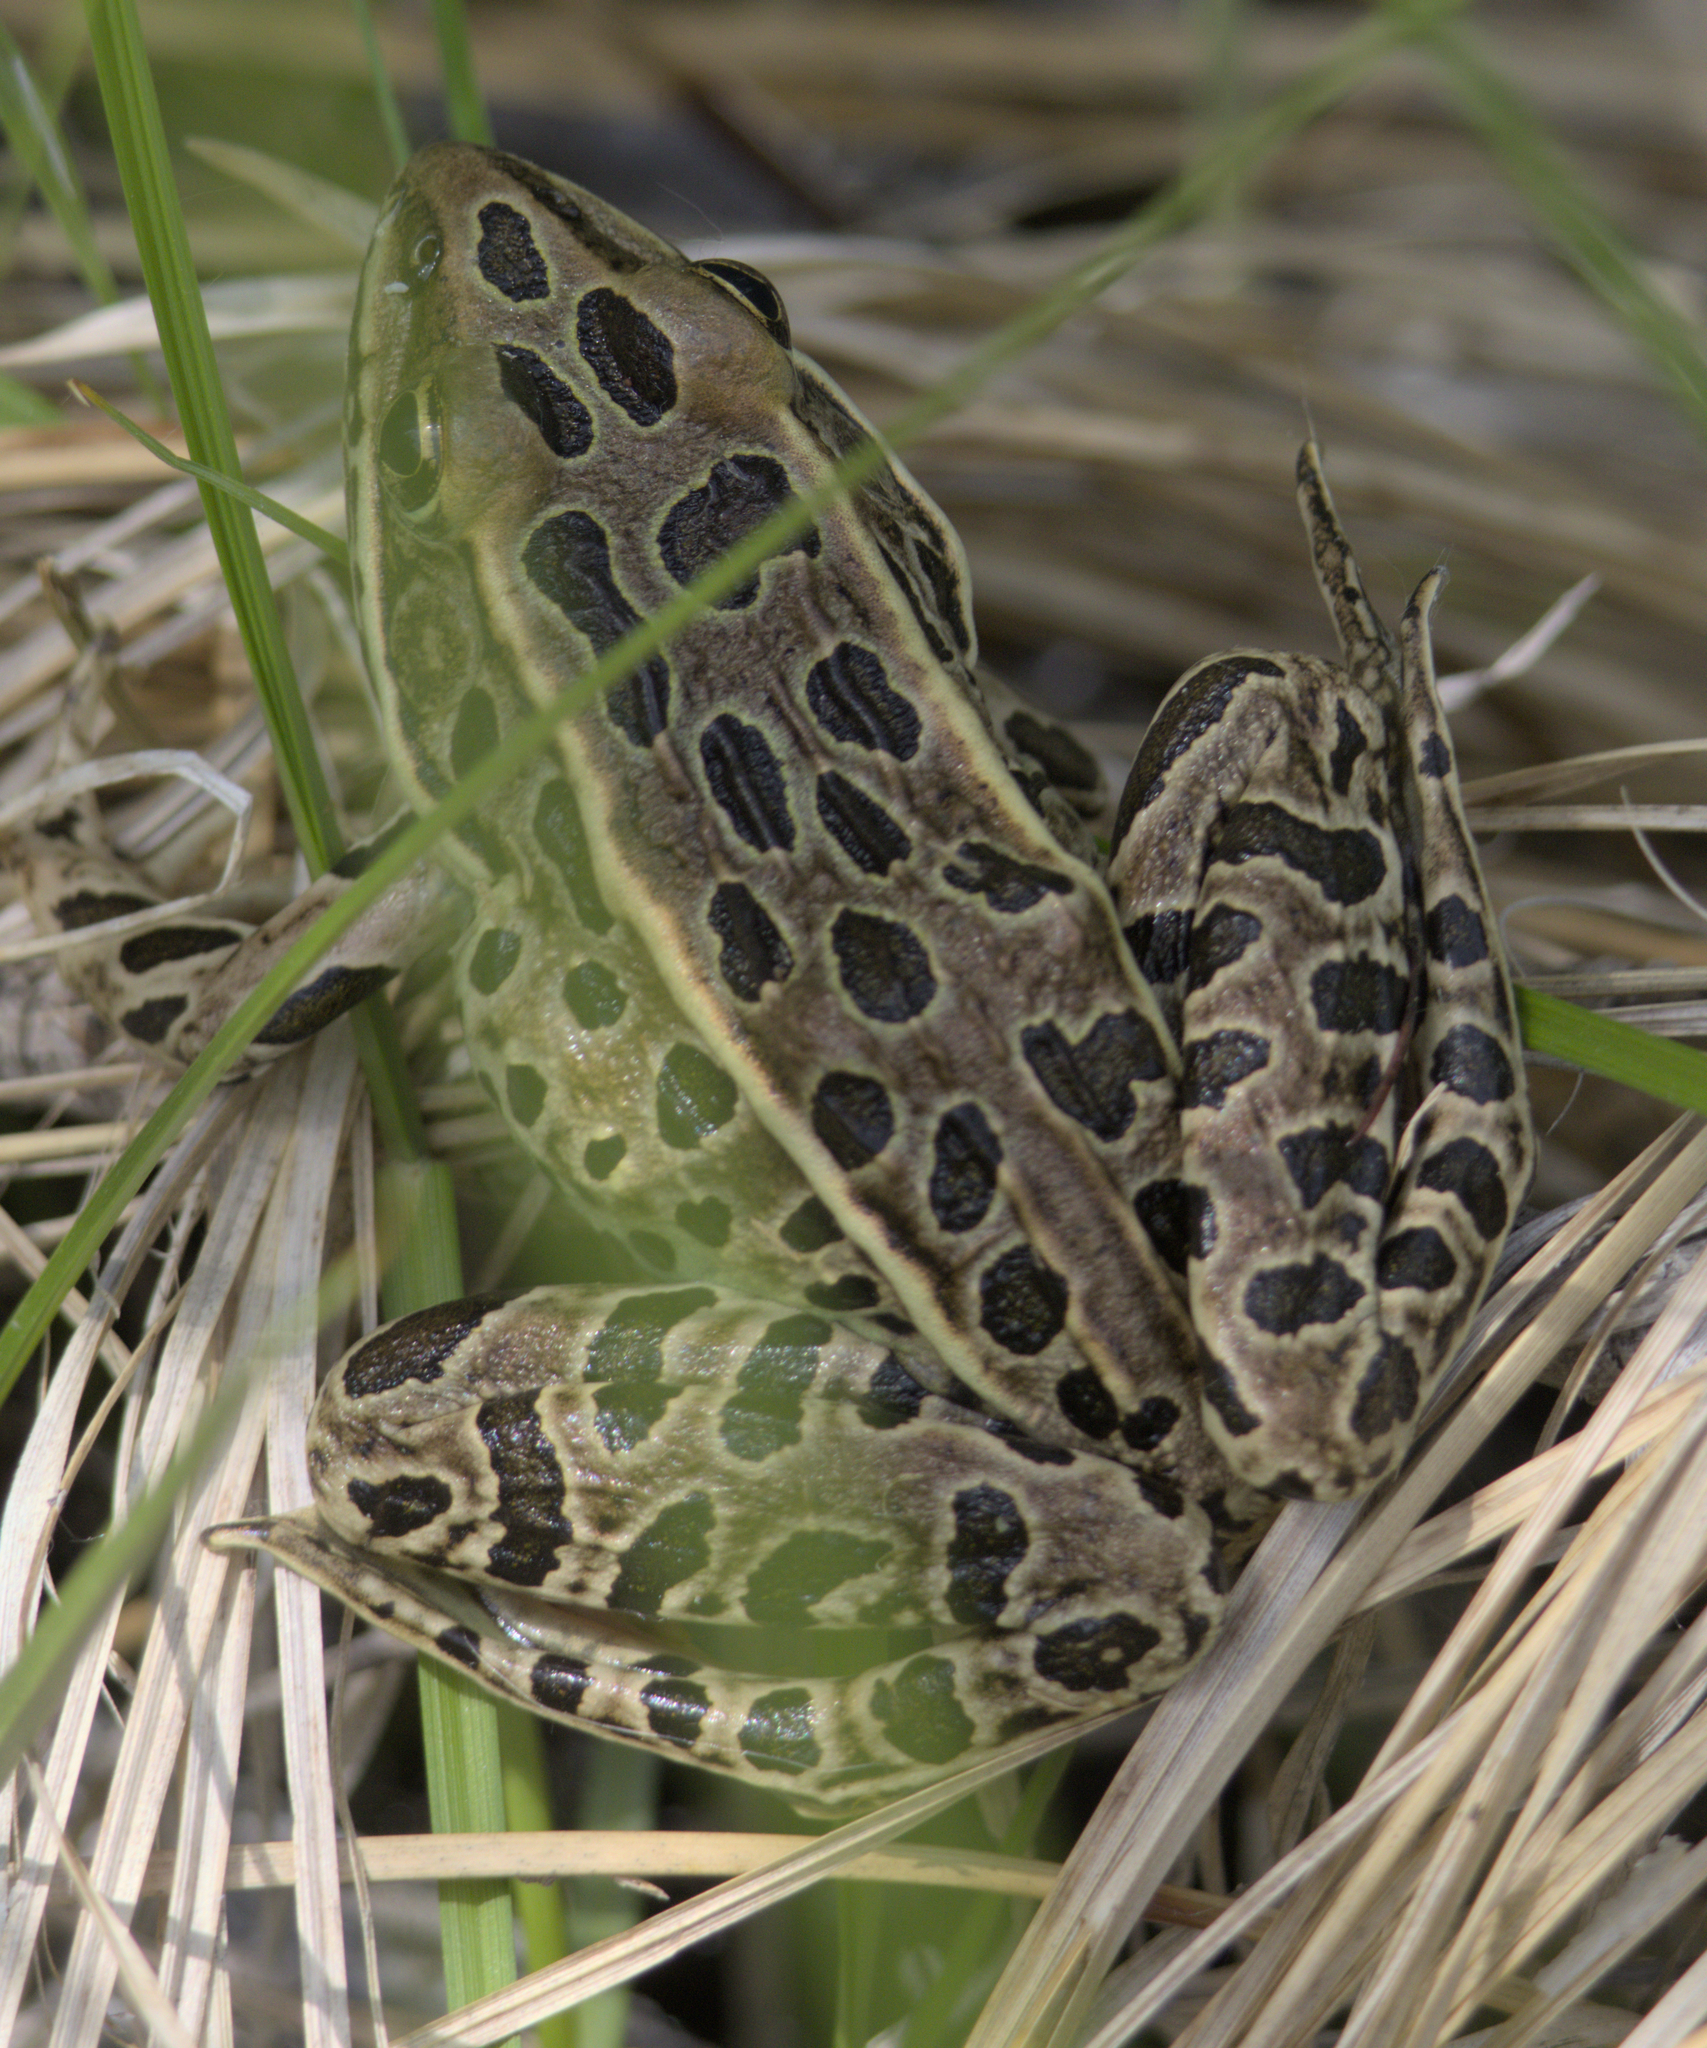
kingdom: Animalia
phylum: Chordata
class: Amphibia
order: Anura
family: Ranidae
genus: Lithobates
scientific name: Lithobates pipiens
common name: Northern leopard frog
